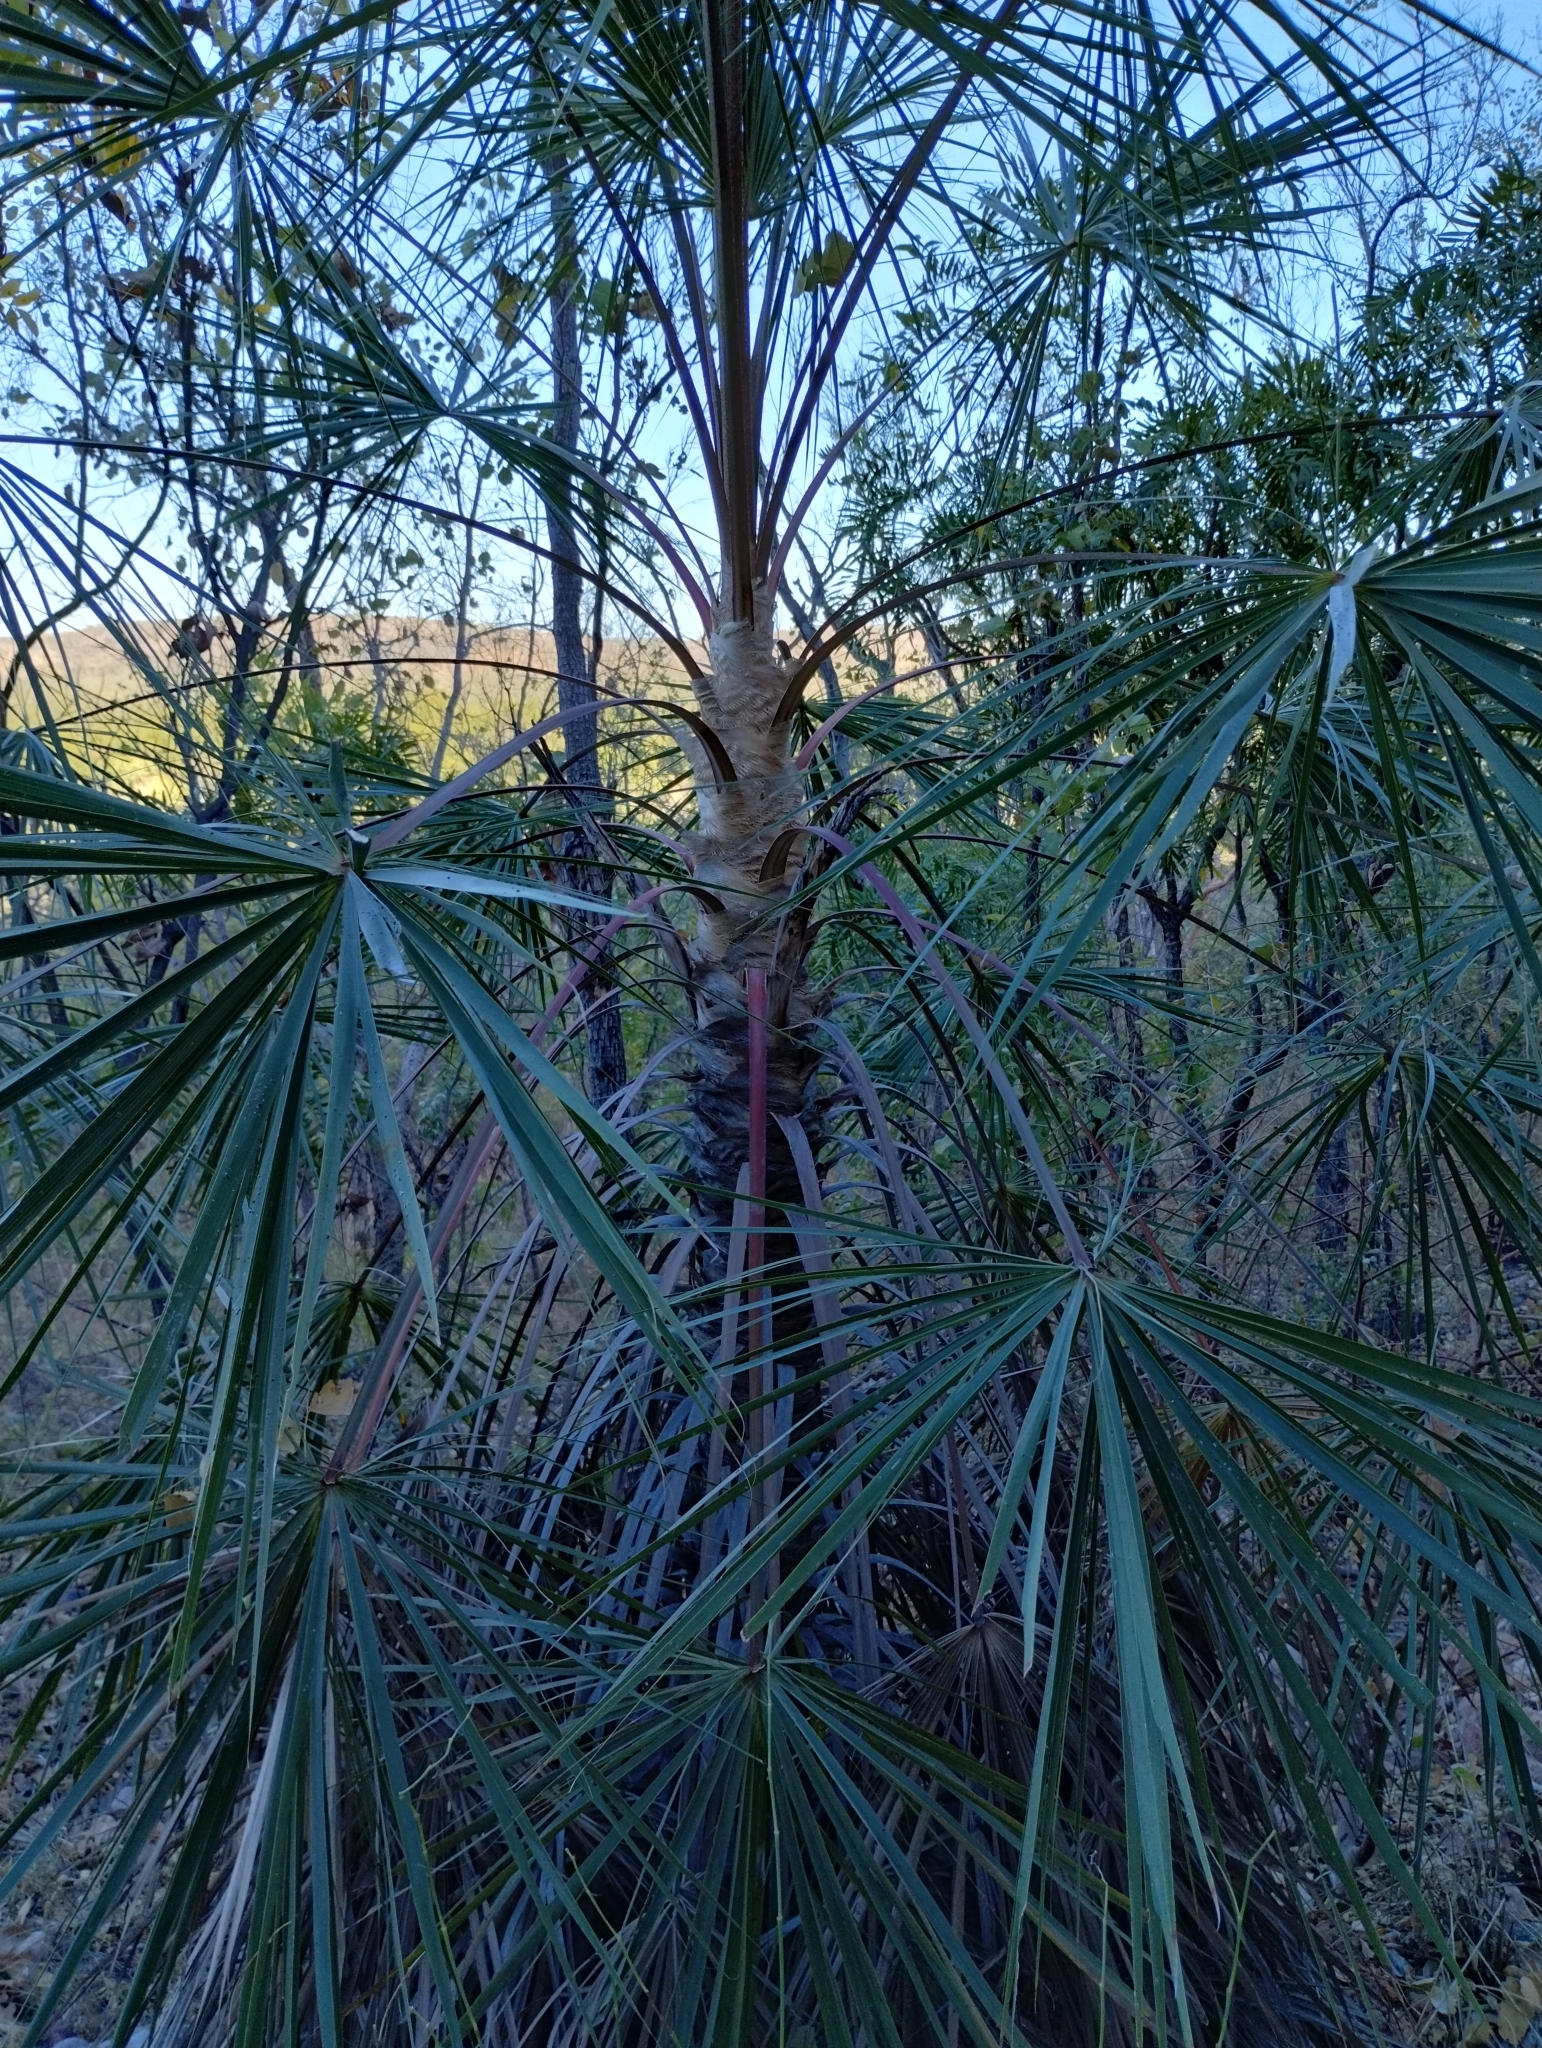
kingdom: Plantae
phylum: Tracheophyta
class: Liliopsida
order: Arecales
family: Arecaceae
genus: Livistona
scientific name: Livistona inermis
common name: Wispy fan palm
